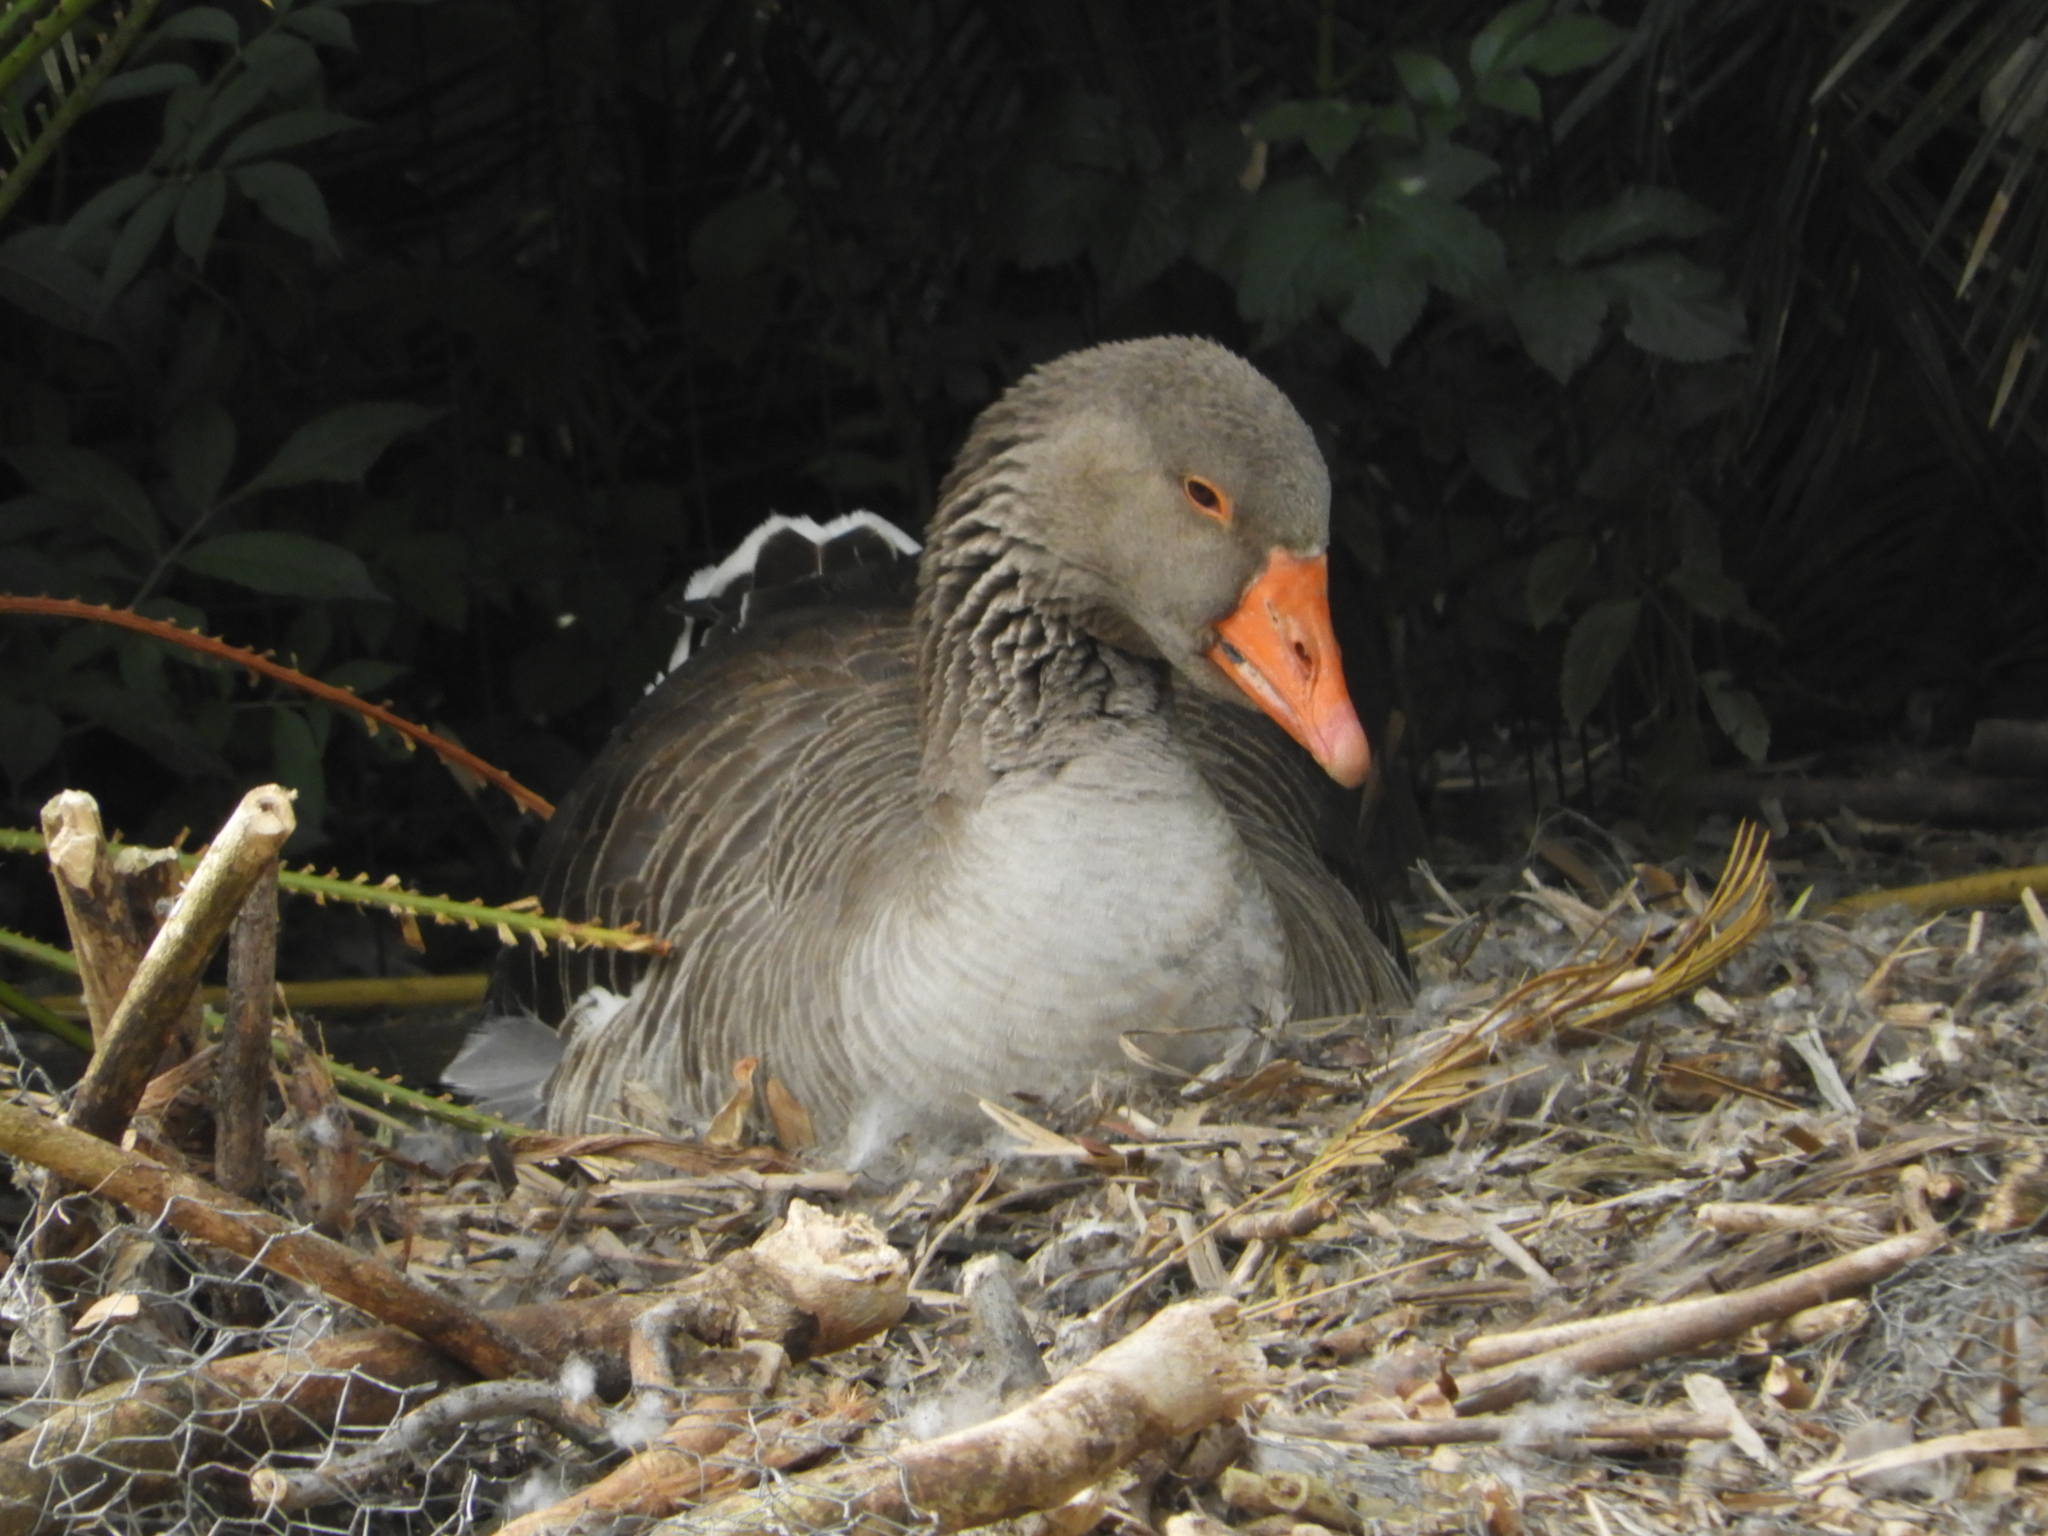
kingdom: Animalia
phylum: Chordata
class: Aves
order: Anseriformes
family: Anatidae
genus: Anser
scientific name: Anser anser
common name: Greylag goose
